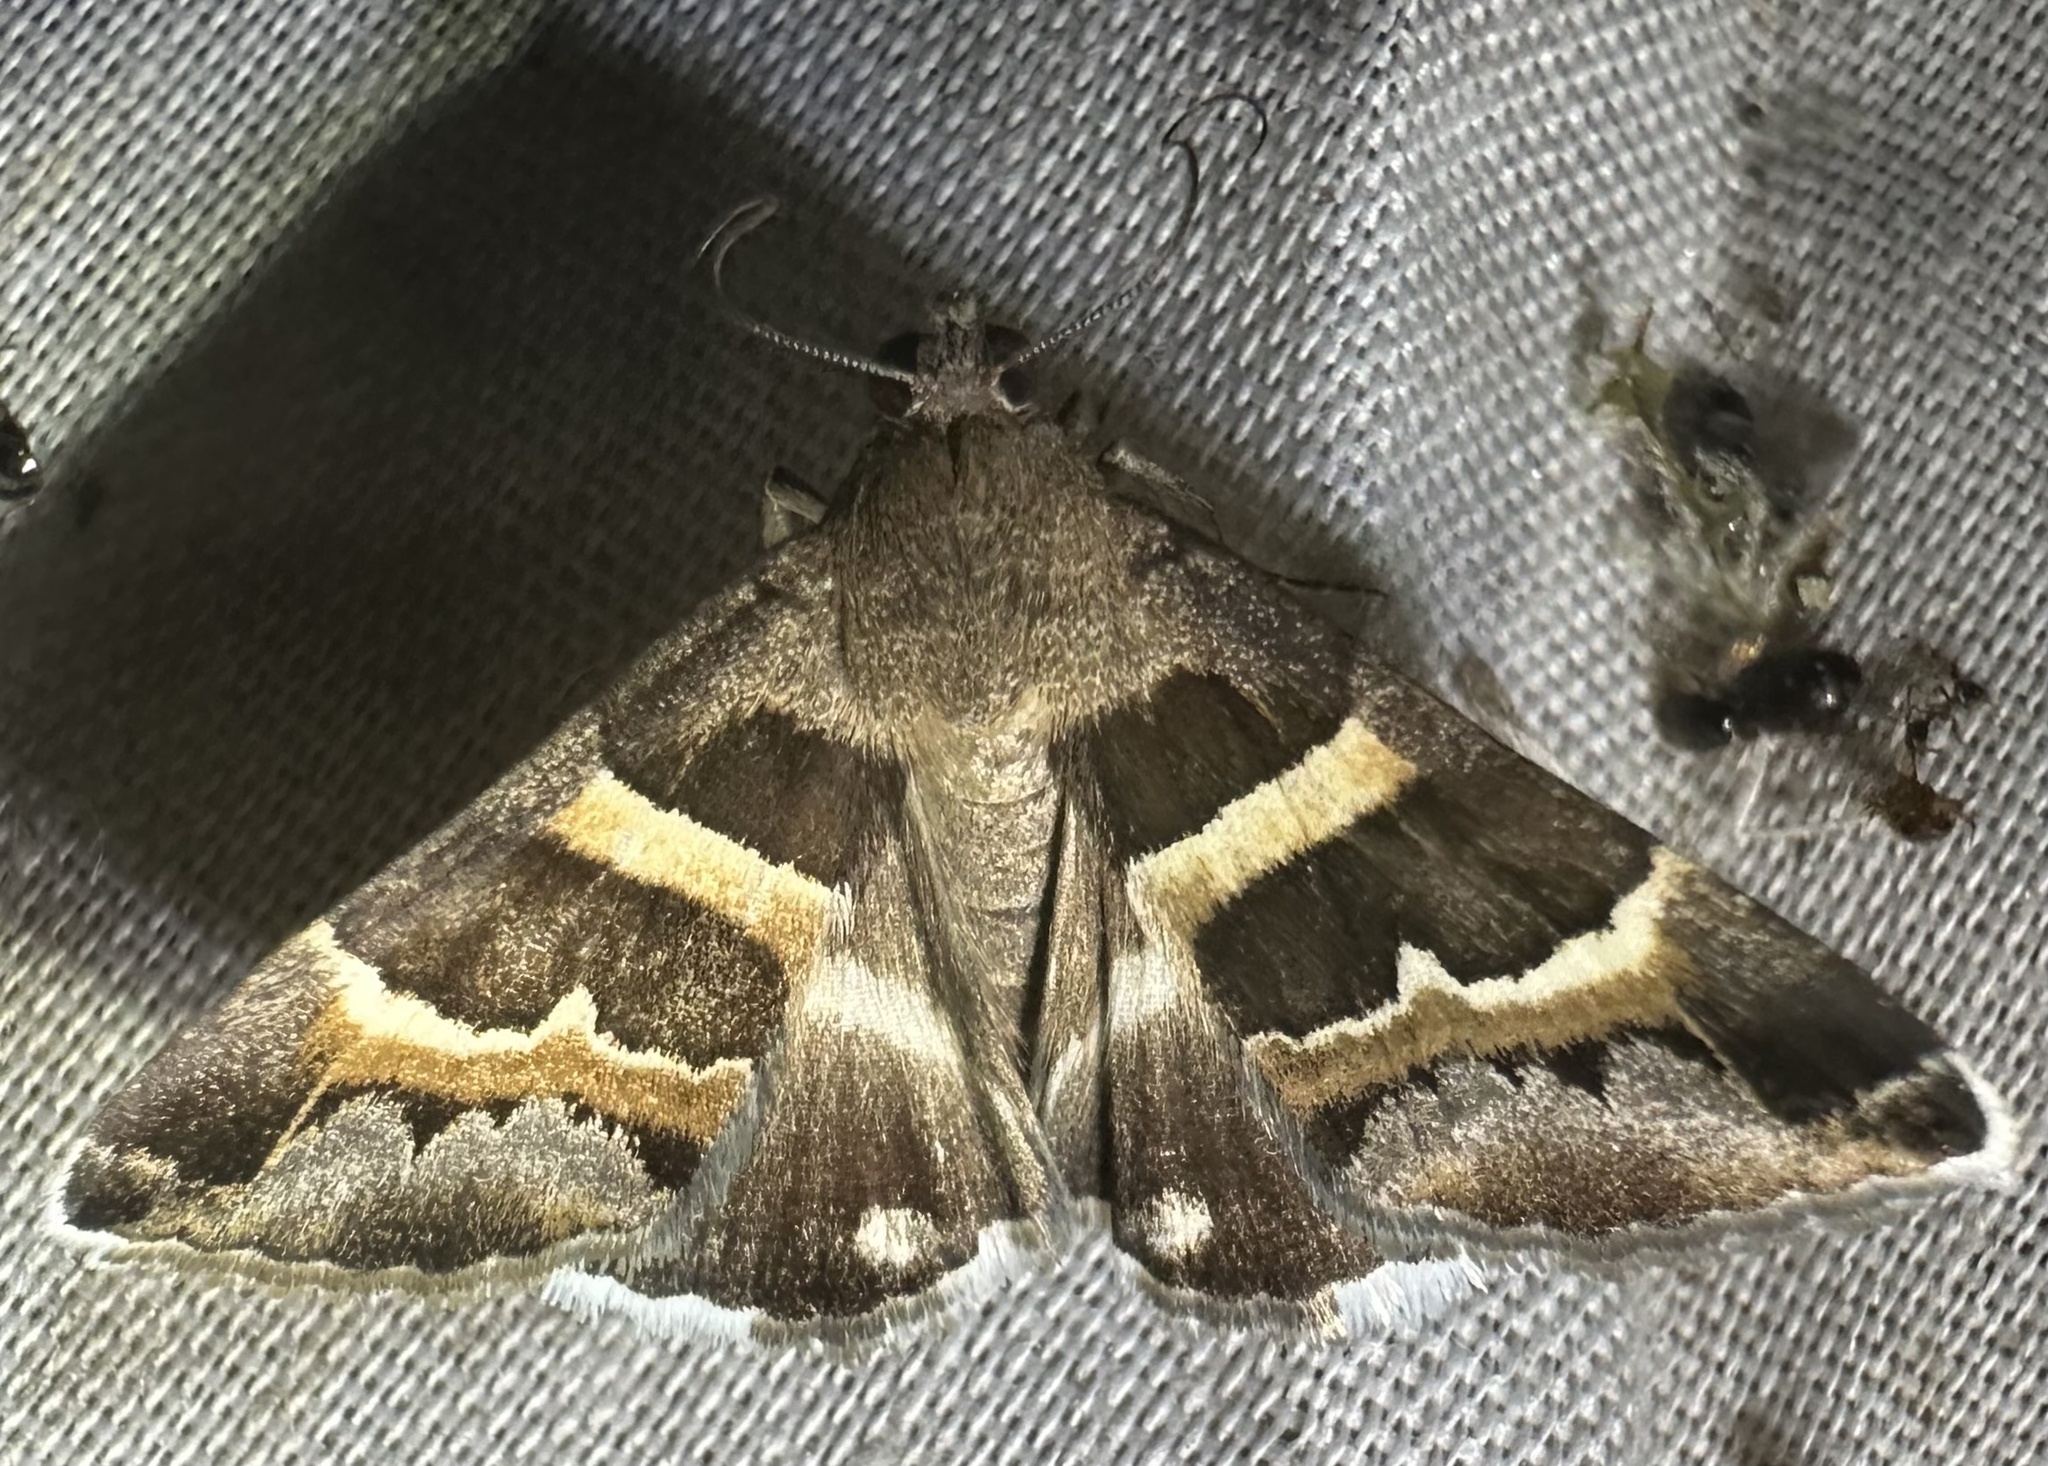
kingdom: Animalia
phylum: Arthropoda
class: Insecta
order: Lepidoptera
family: Erebidae
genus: Grammodes
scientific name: Grammodes stolida
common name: Geometrician
